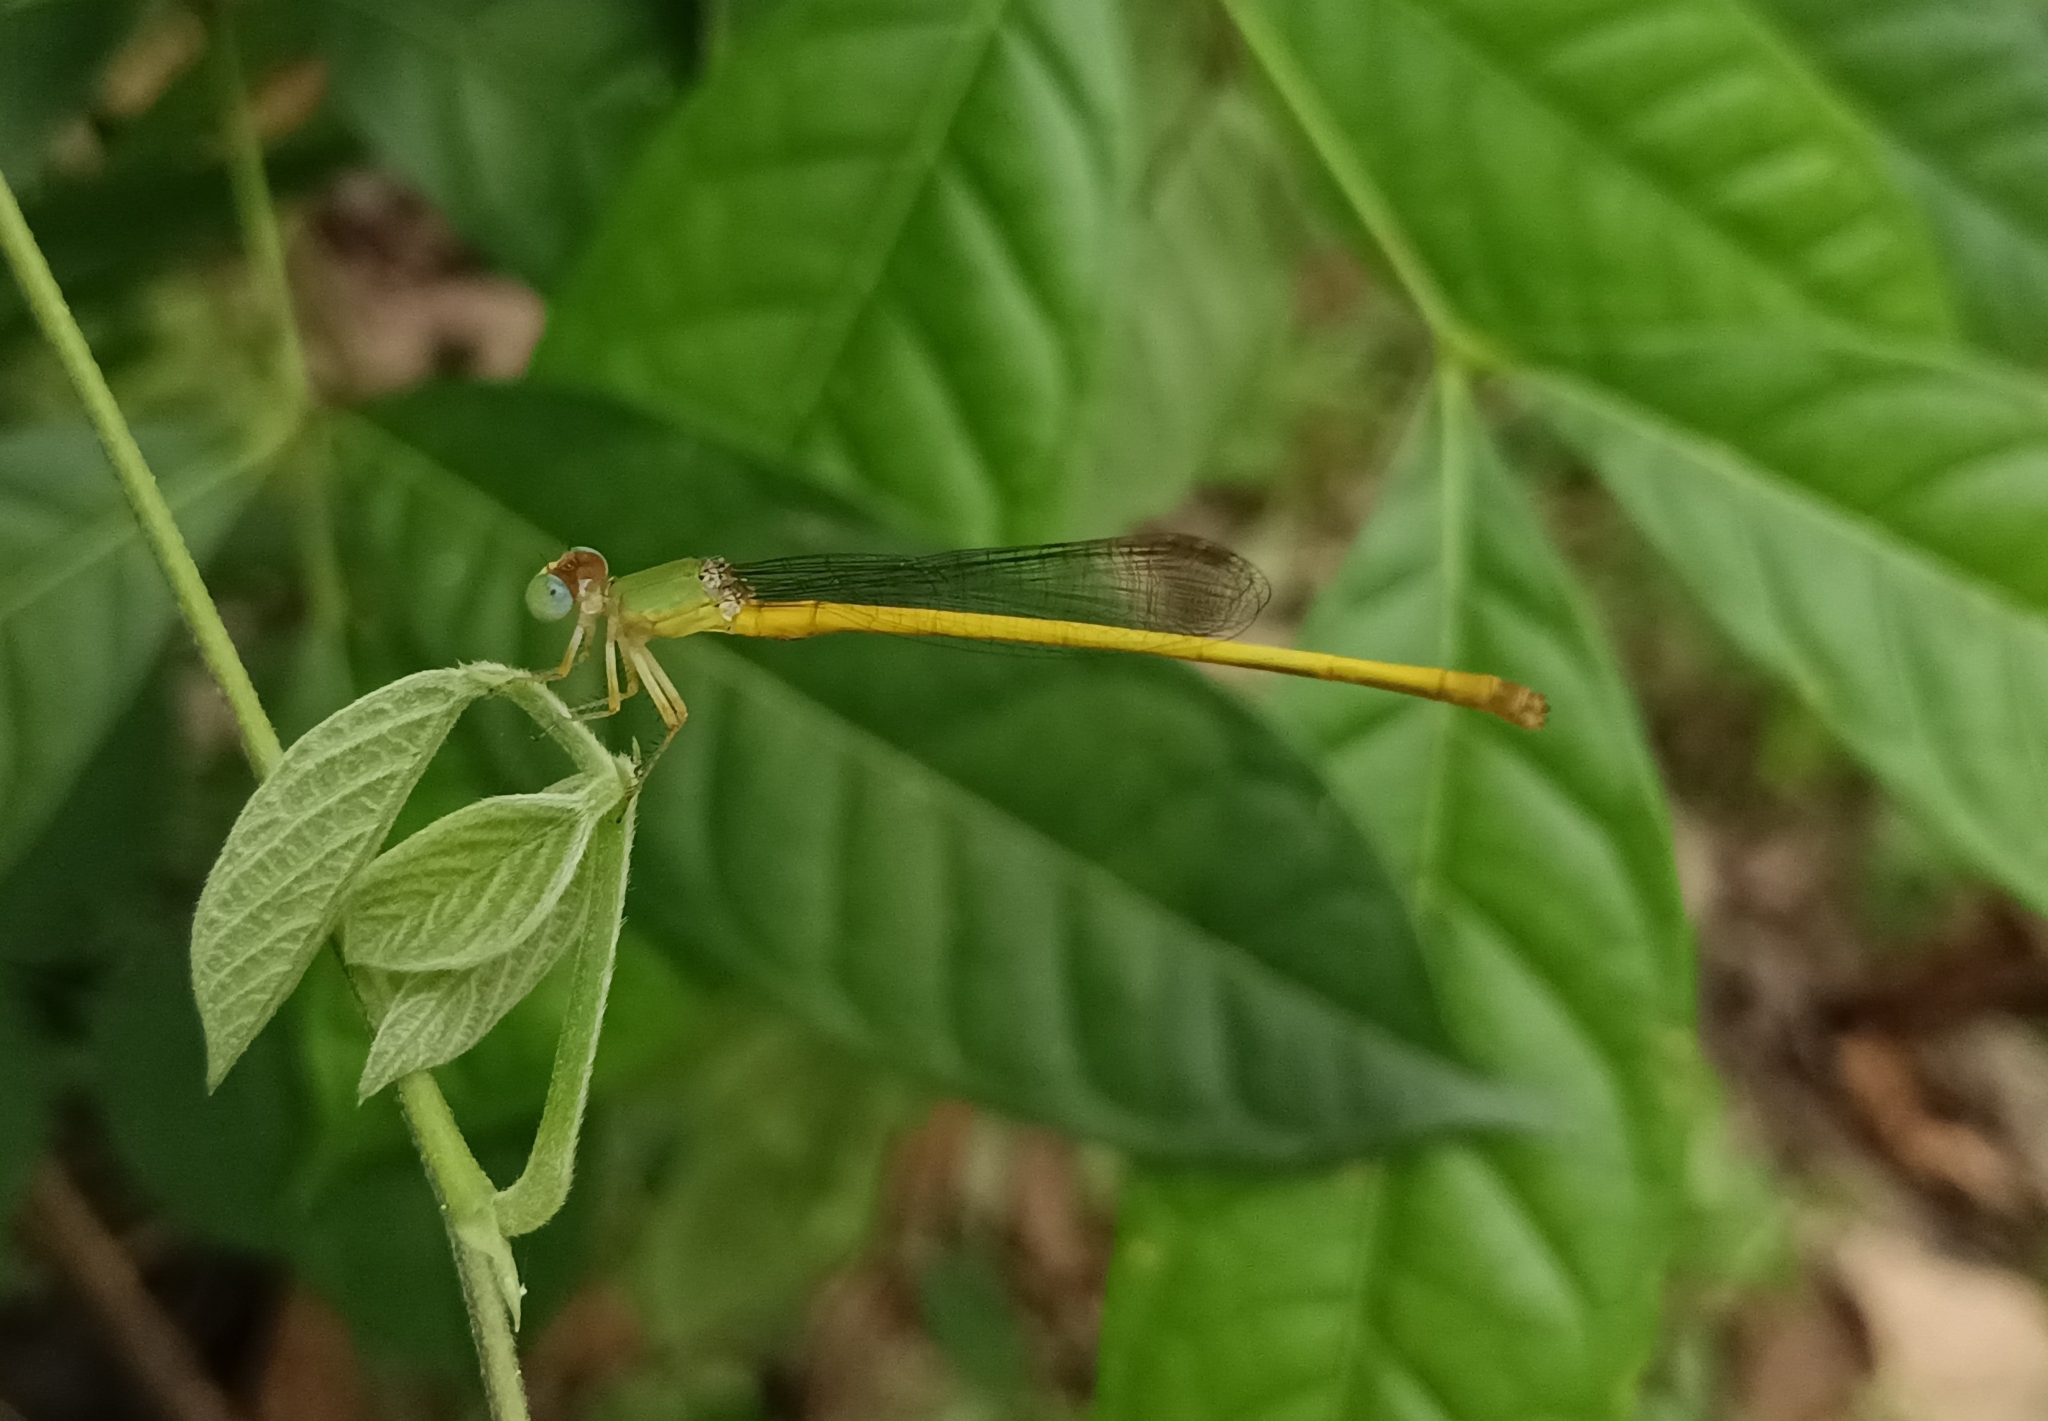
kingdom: Animalia
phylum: Arthropoda
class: Insecta
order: Odonata
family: Coenagrionidae
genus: Ceriagrion
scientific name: Ceriagrion coromandelianum
